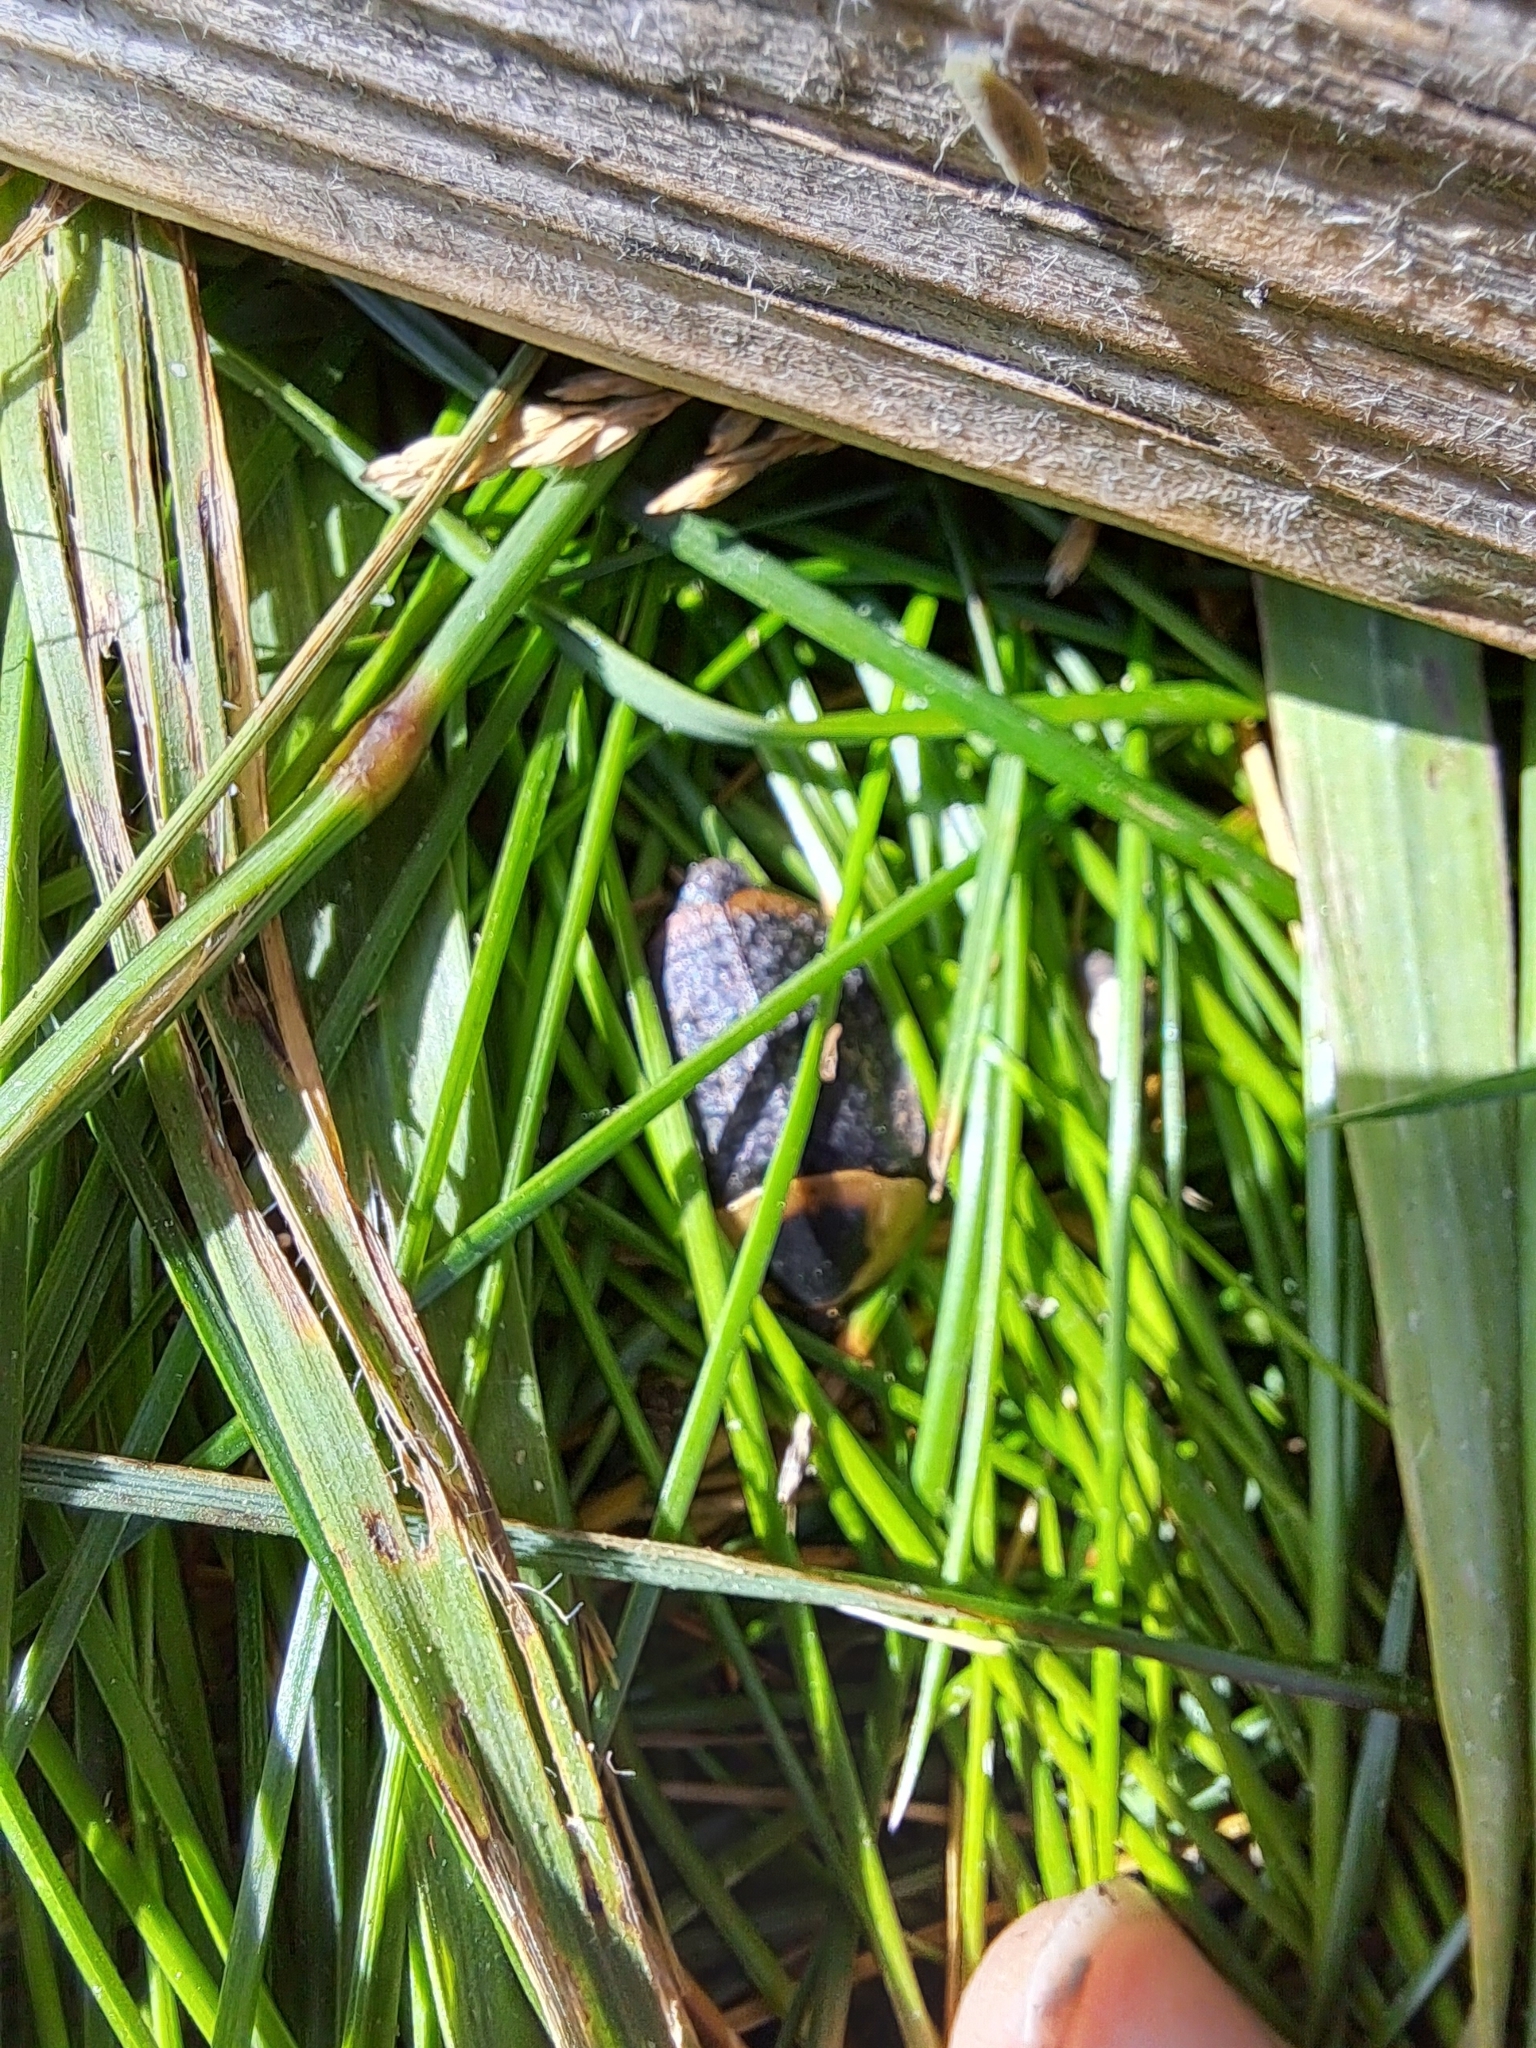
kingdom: Animalia
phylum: Arthropoda
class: Insecta
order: Coleoptera
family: Staphylinidae
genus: Necrophila
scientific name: Necrophila americana
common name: American carrion beetle
